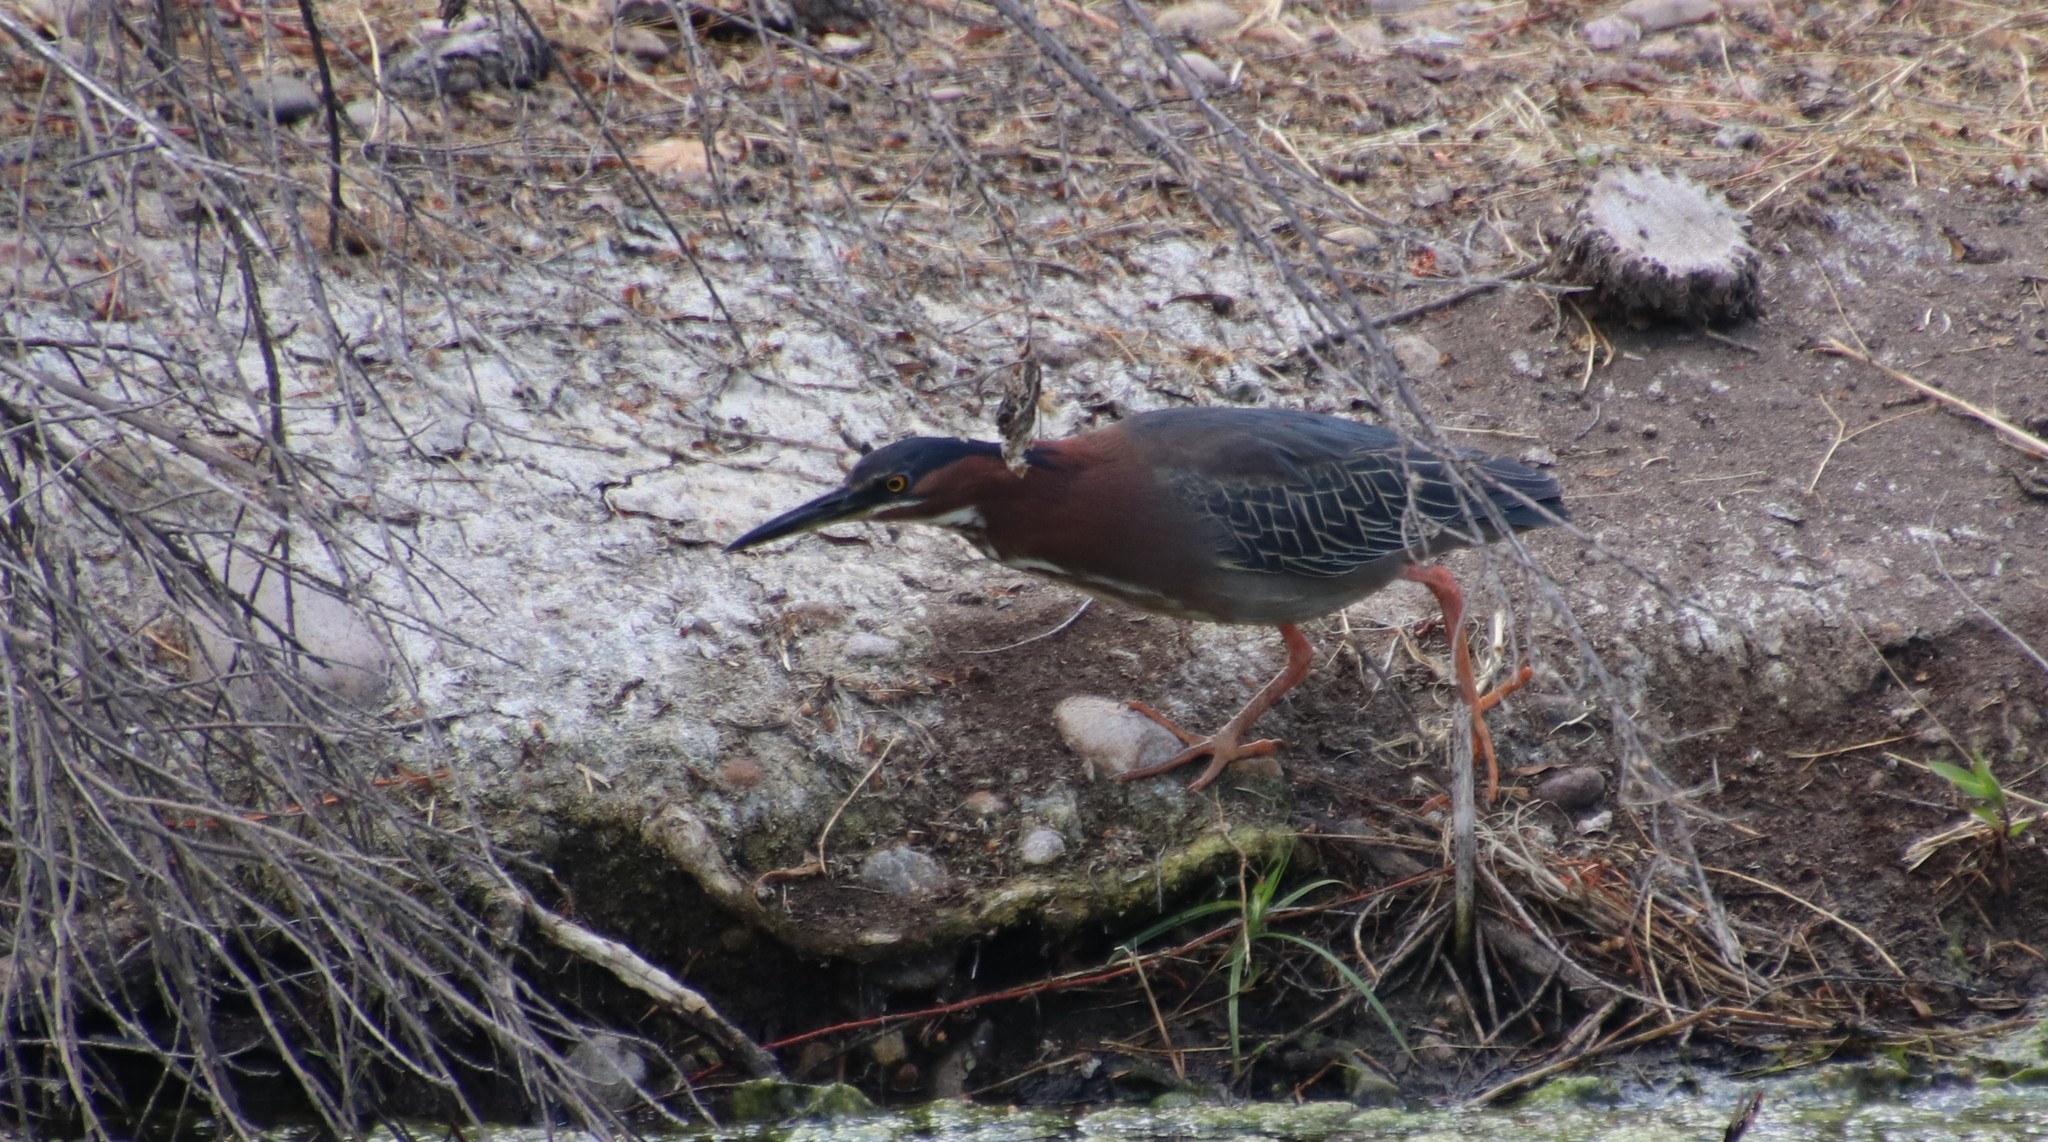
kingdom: Animalia
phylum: Chordata
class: Aves
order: Pelecaniformes
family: Ardeidae
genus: Butorides
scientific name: Butorides virescens
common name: Green heron
